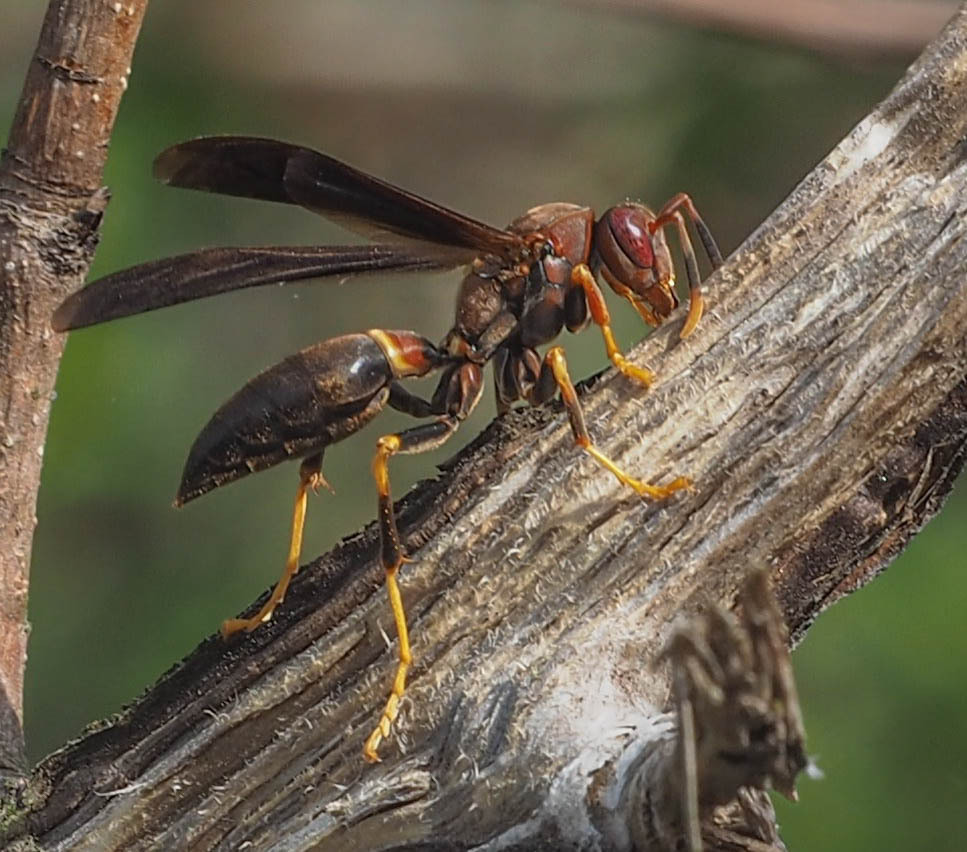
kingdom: Animalia
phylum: Arthropoda
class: Insecta
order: Hymenoptera
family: Eumenidae
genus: Polistes
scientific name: Polistes annularis
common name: Ringed paper wasp
